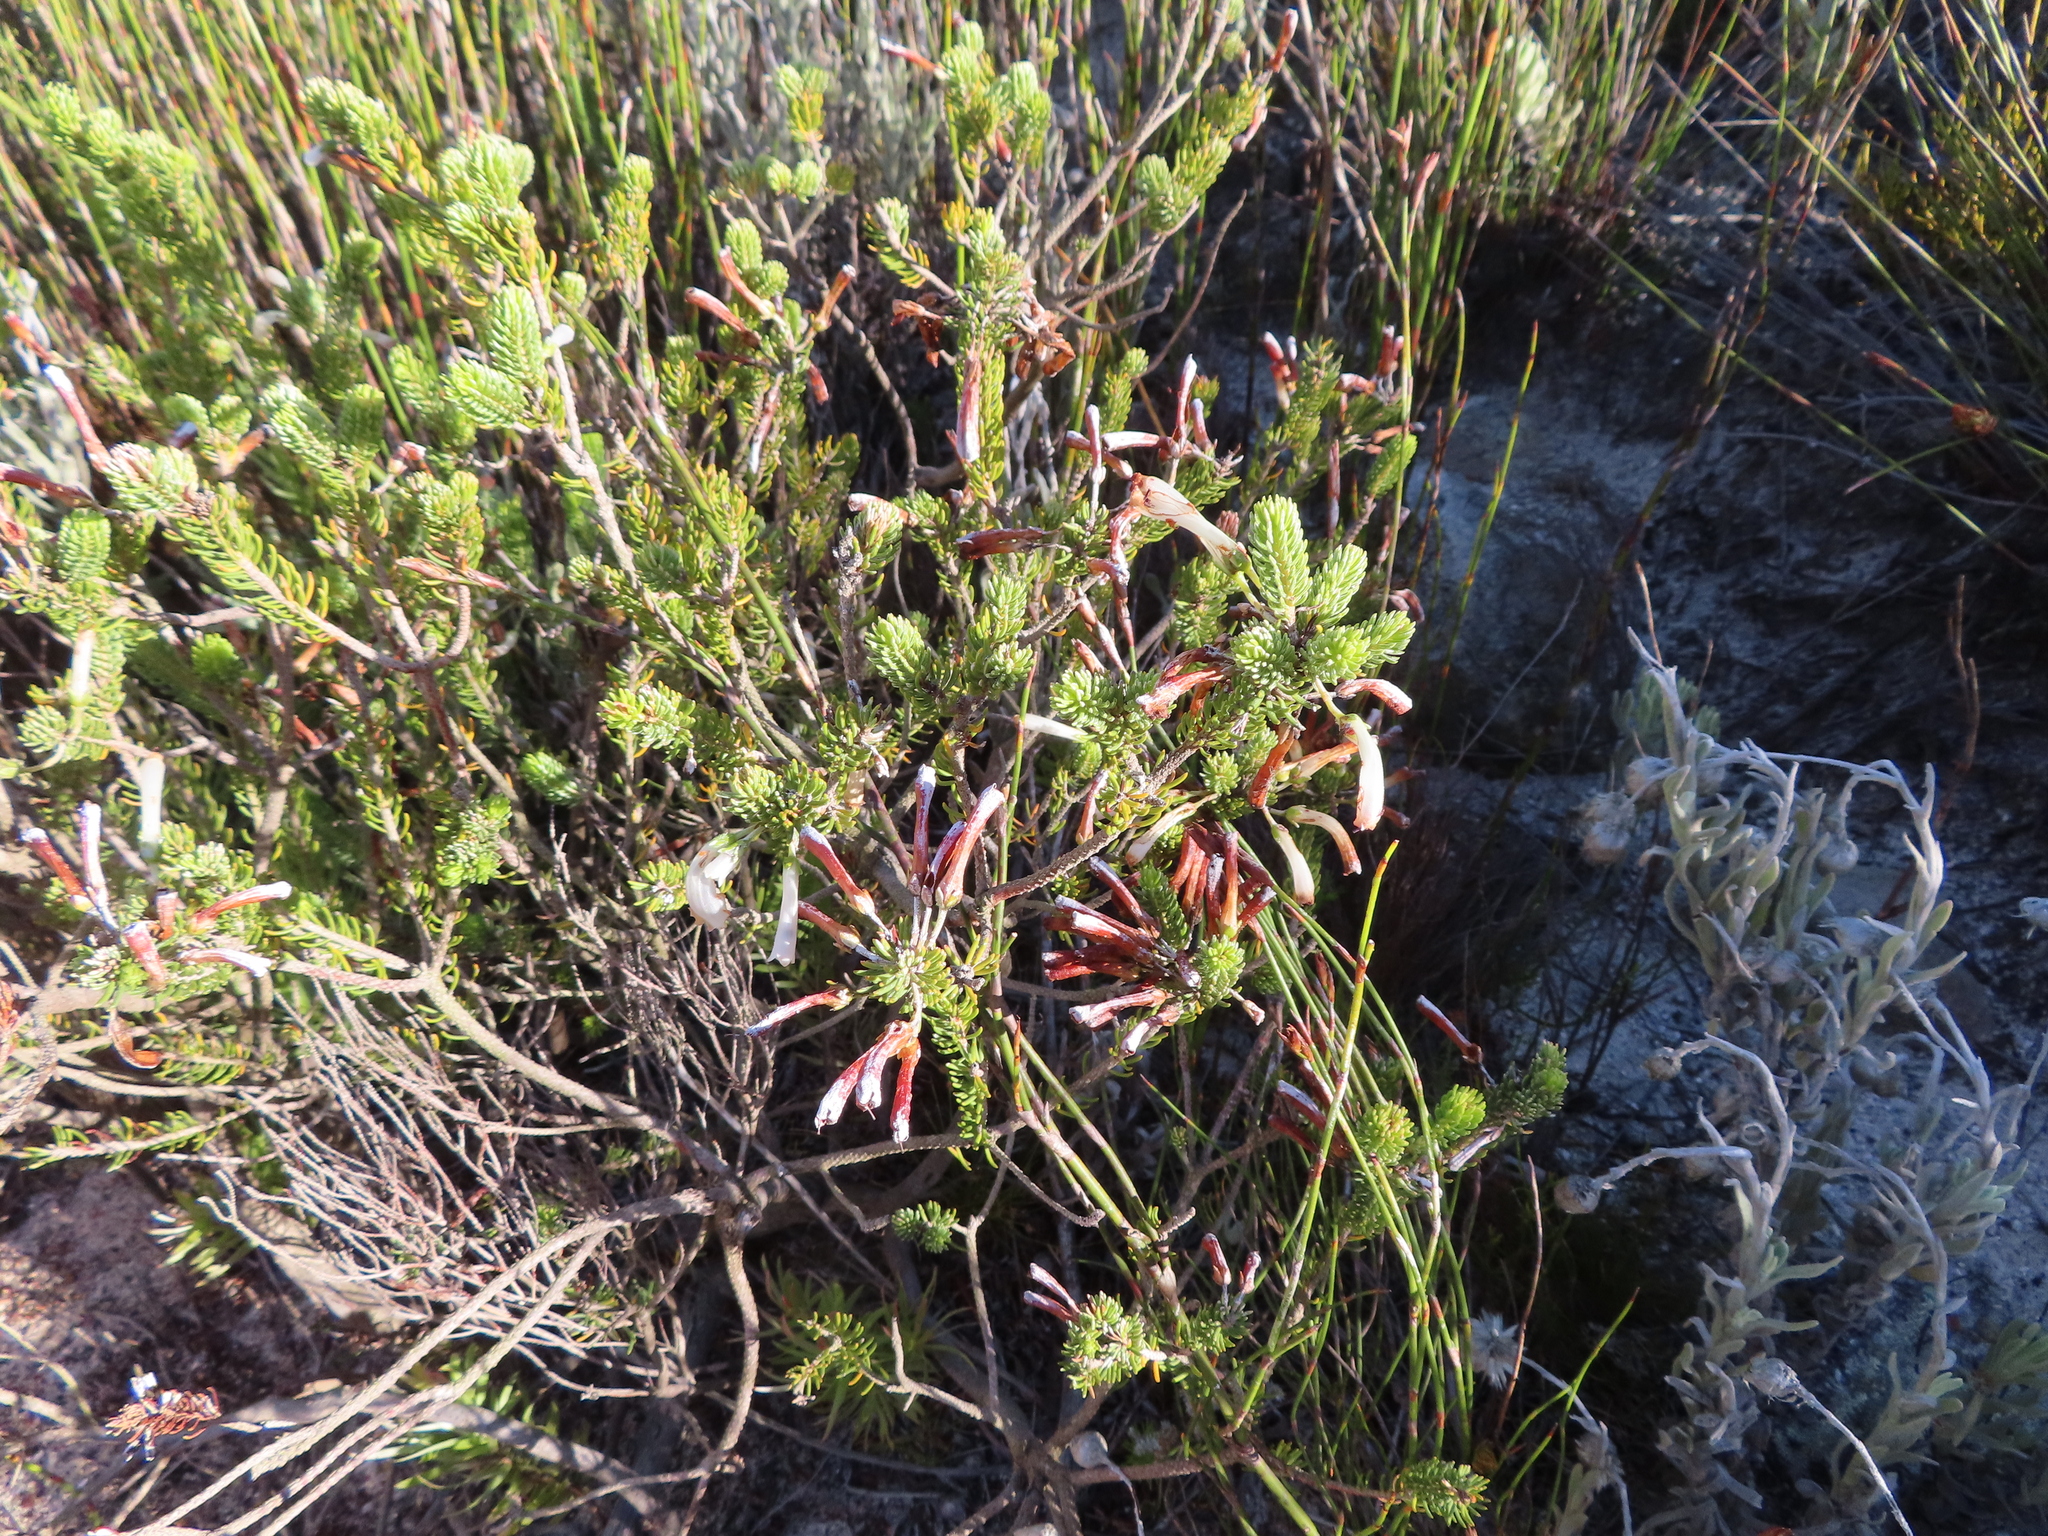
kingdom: Plantae
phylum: Tracheophyta
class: Magnoliopsida
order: Ericales
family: Ericaceae
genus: Erica
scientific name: Erica thomae
